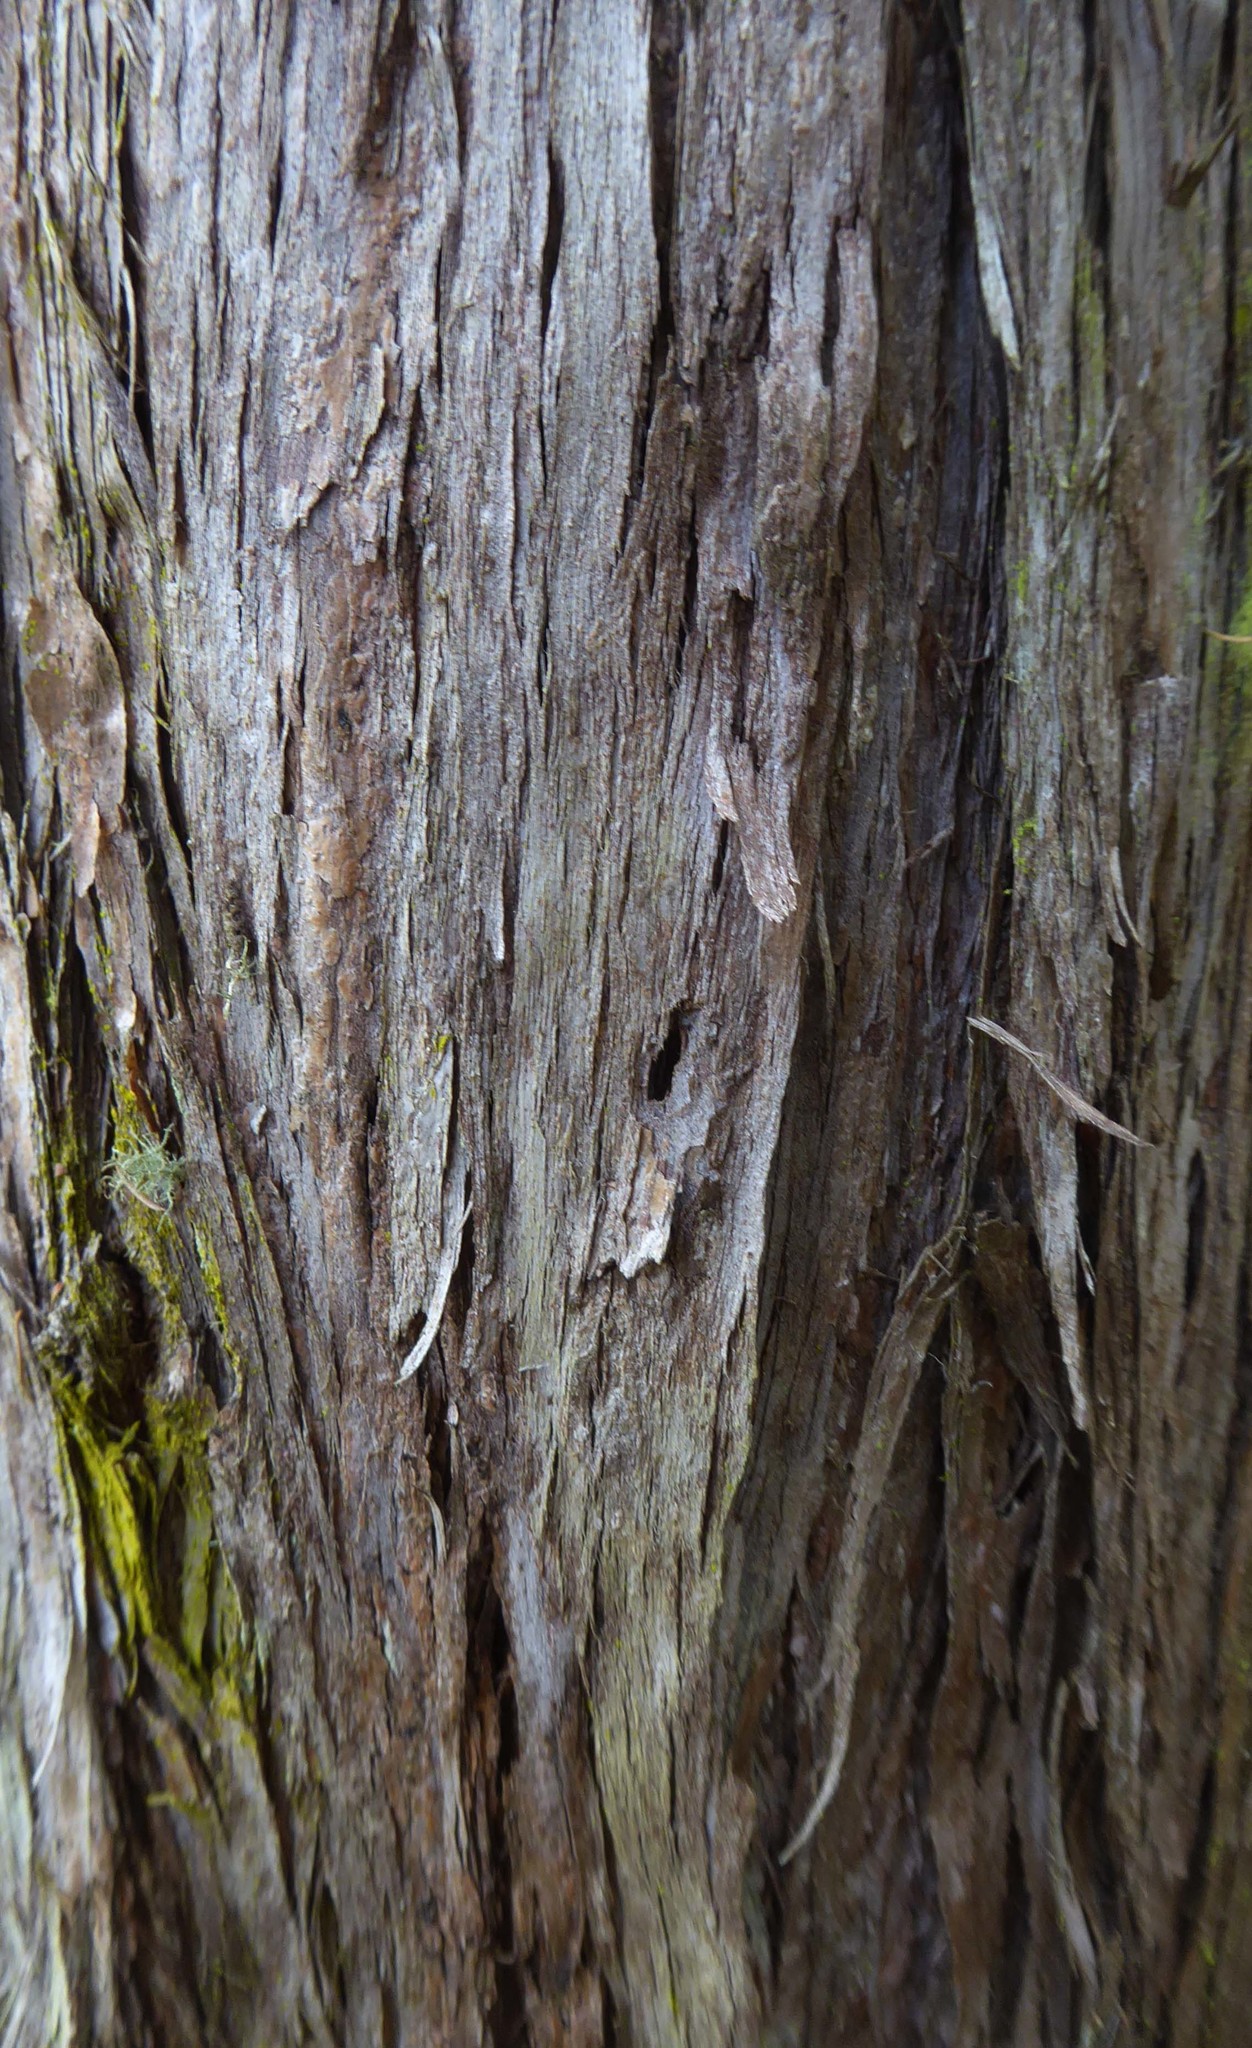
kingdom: Plantae
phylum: Tracheophyta
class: Magnoliopsida
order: Myrtales
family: Myrtaceae
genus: Kunzea
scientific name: Kunzea robusta
